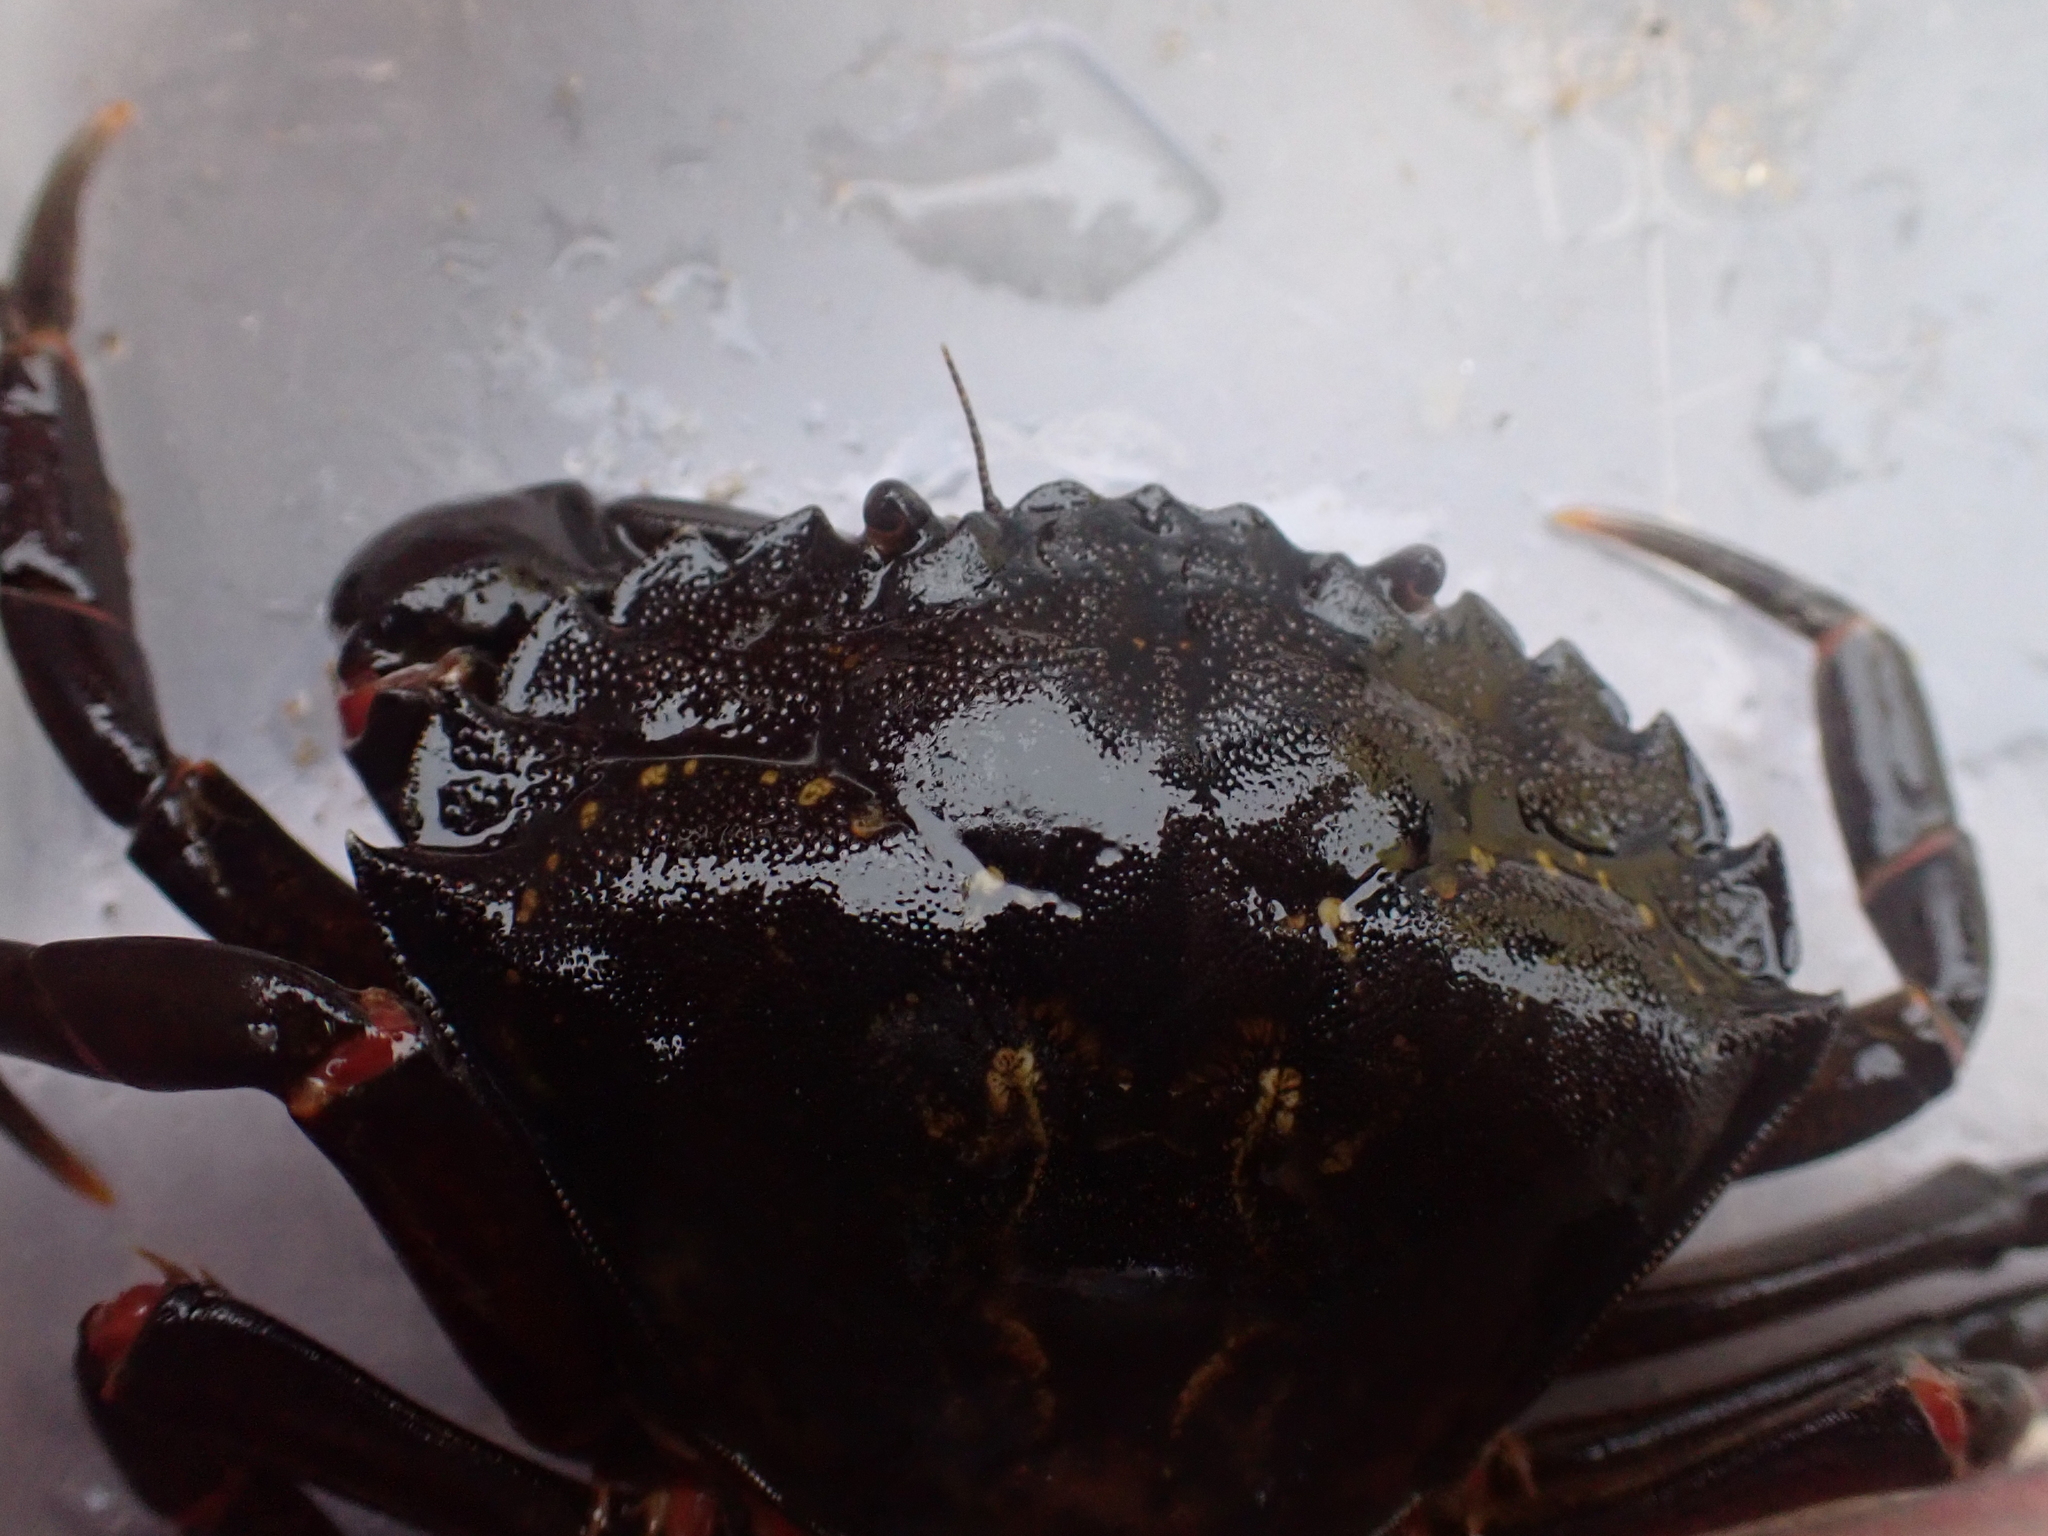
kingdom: Animalia
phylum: Arthropoda
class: Malacostraca
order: Decapoda
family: Carcinidae
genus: Carcinus
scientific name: Carcinus maenas
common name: European green crab
